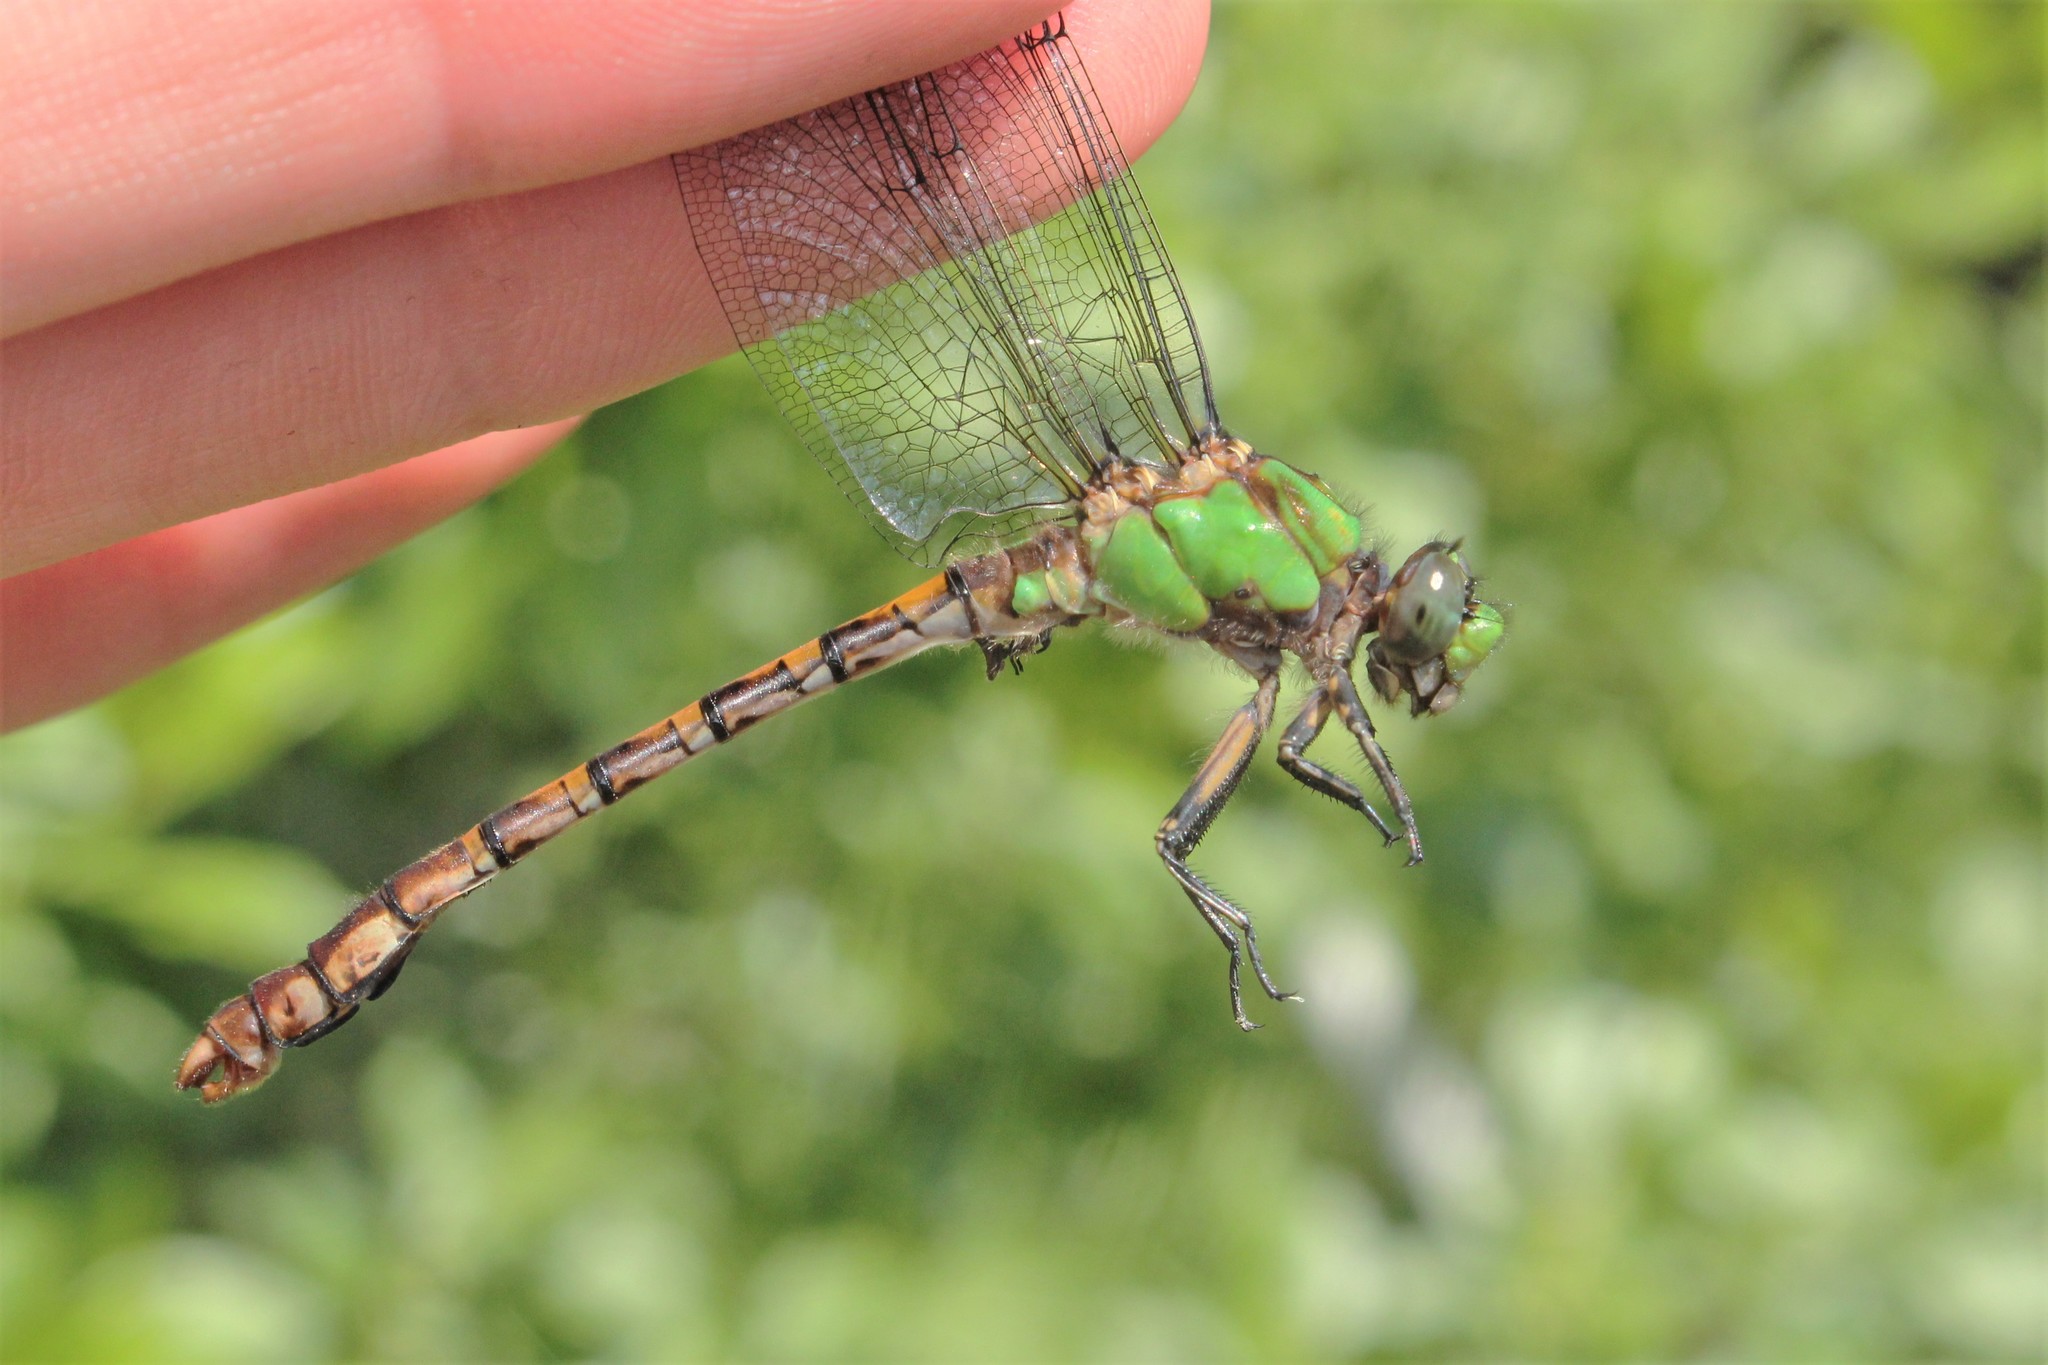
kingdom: Animalia
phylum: Arthropoda
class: Insecta
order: Odonata
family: Gomphidae
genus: Ophiogomphus
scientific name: Ophiogomphus rupinsulensis
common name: Rusty snaketail
